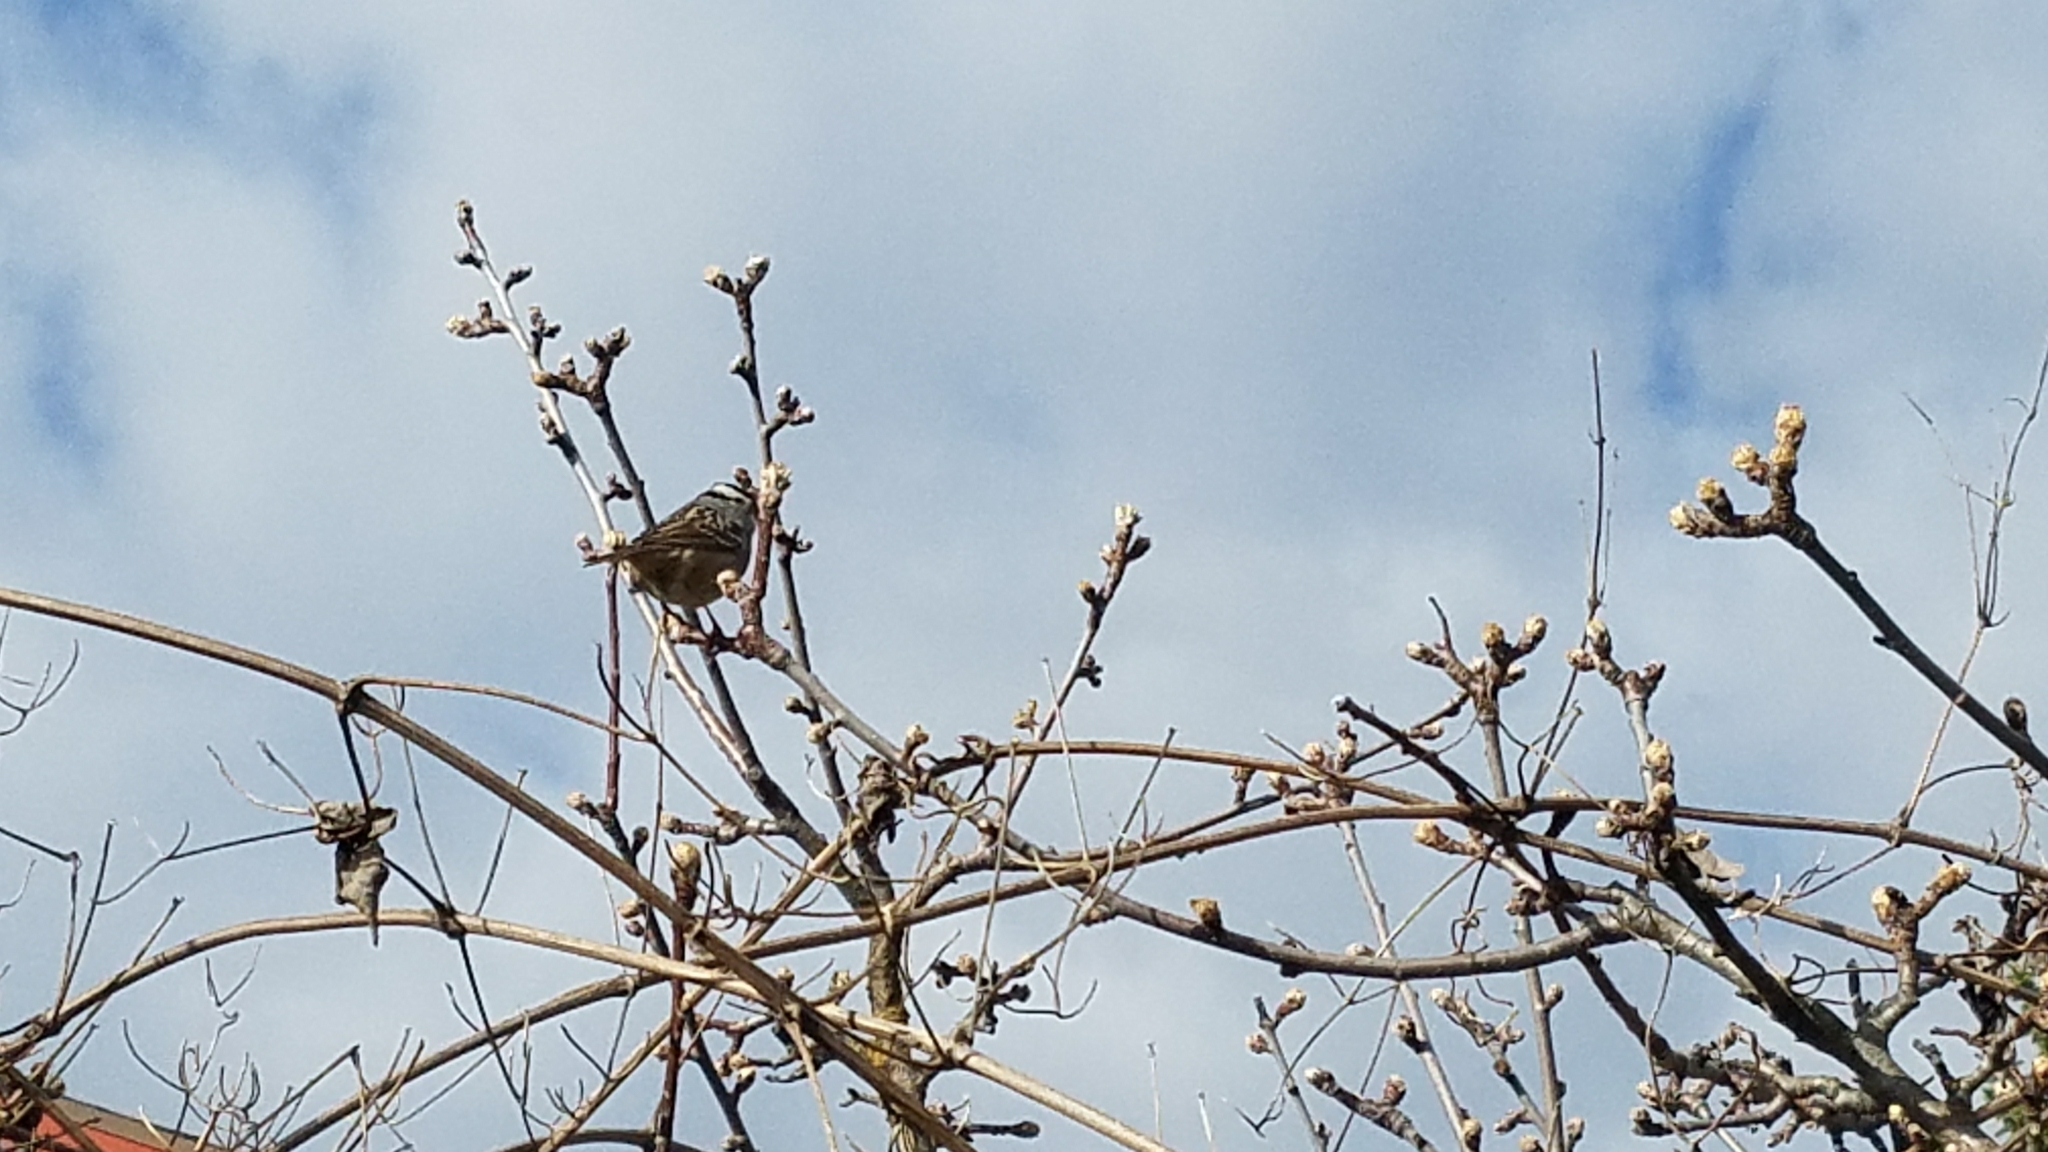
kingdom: Animalia
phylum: Chordata
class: Aves
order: Passeriformes
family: Passerellidae
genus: Zonotrichia
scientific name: Zonotrichia leucophrys
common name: White-crowned sparrow
